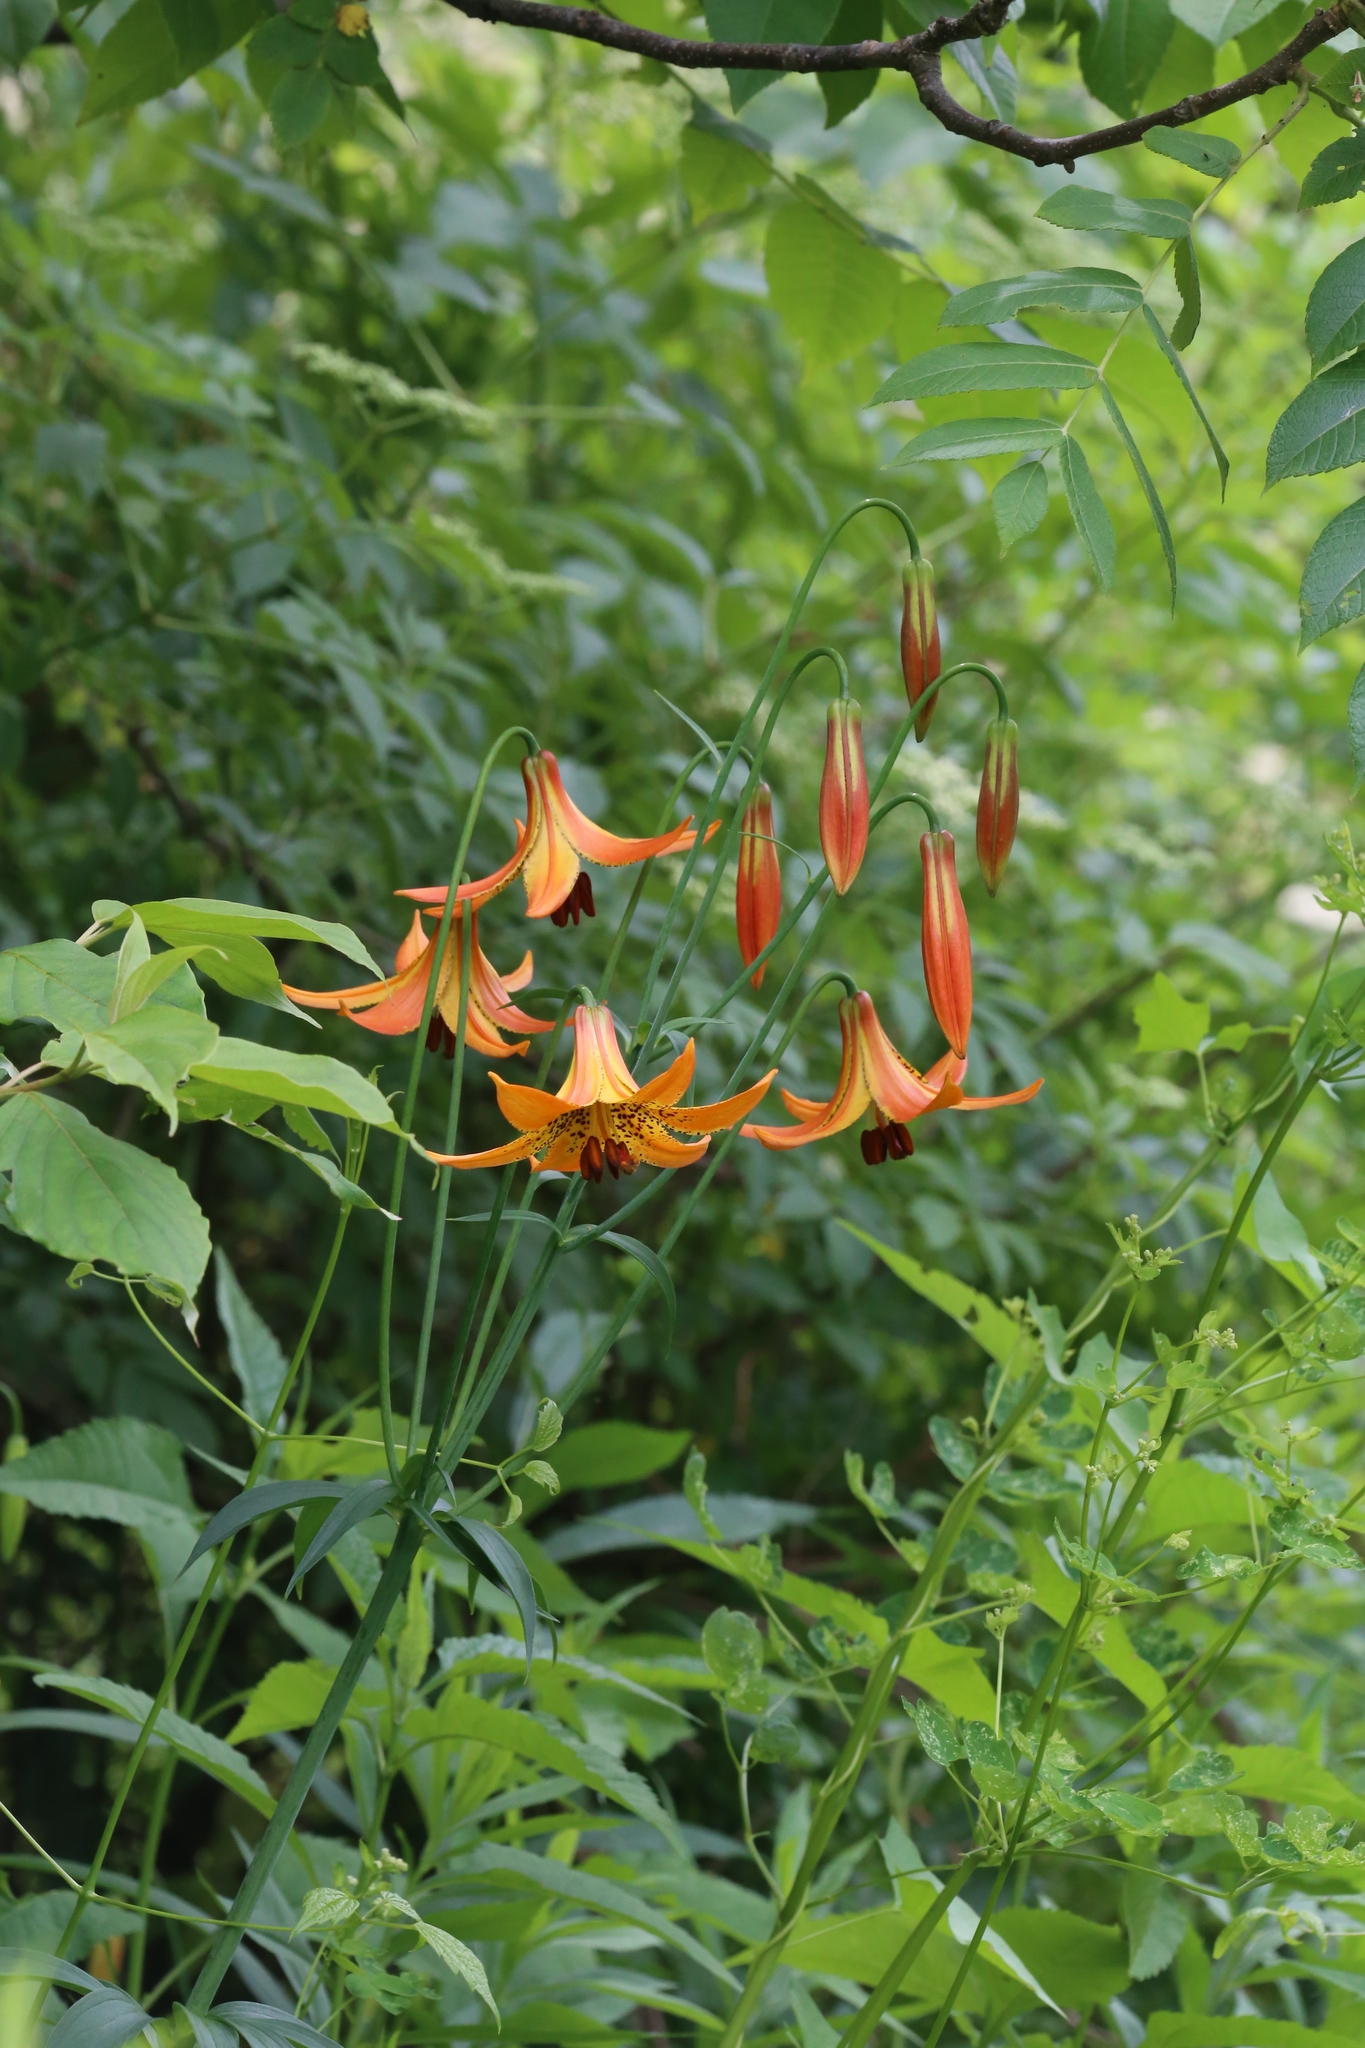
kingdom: Plantae
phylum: Tracheophyta
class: Liliopsida
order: Liliales
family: Liliaceae
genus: Lilium
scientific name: Lilium canadense
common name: Canada lily
